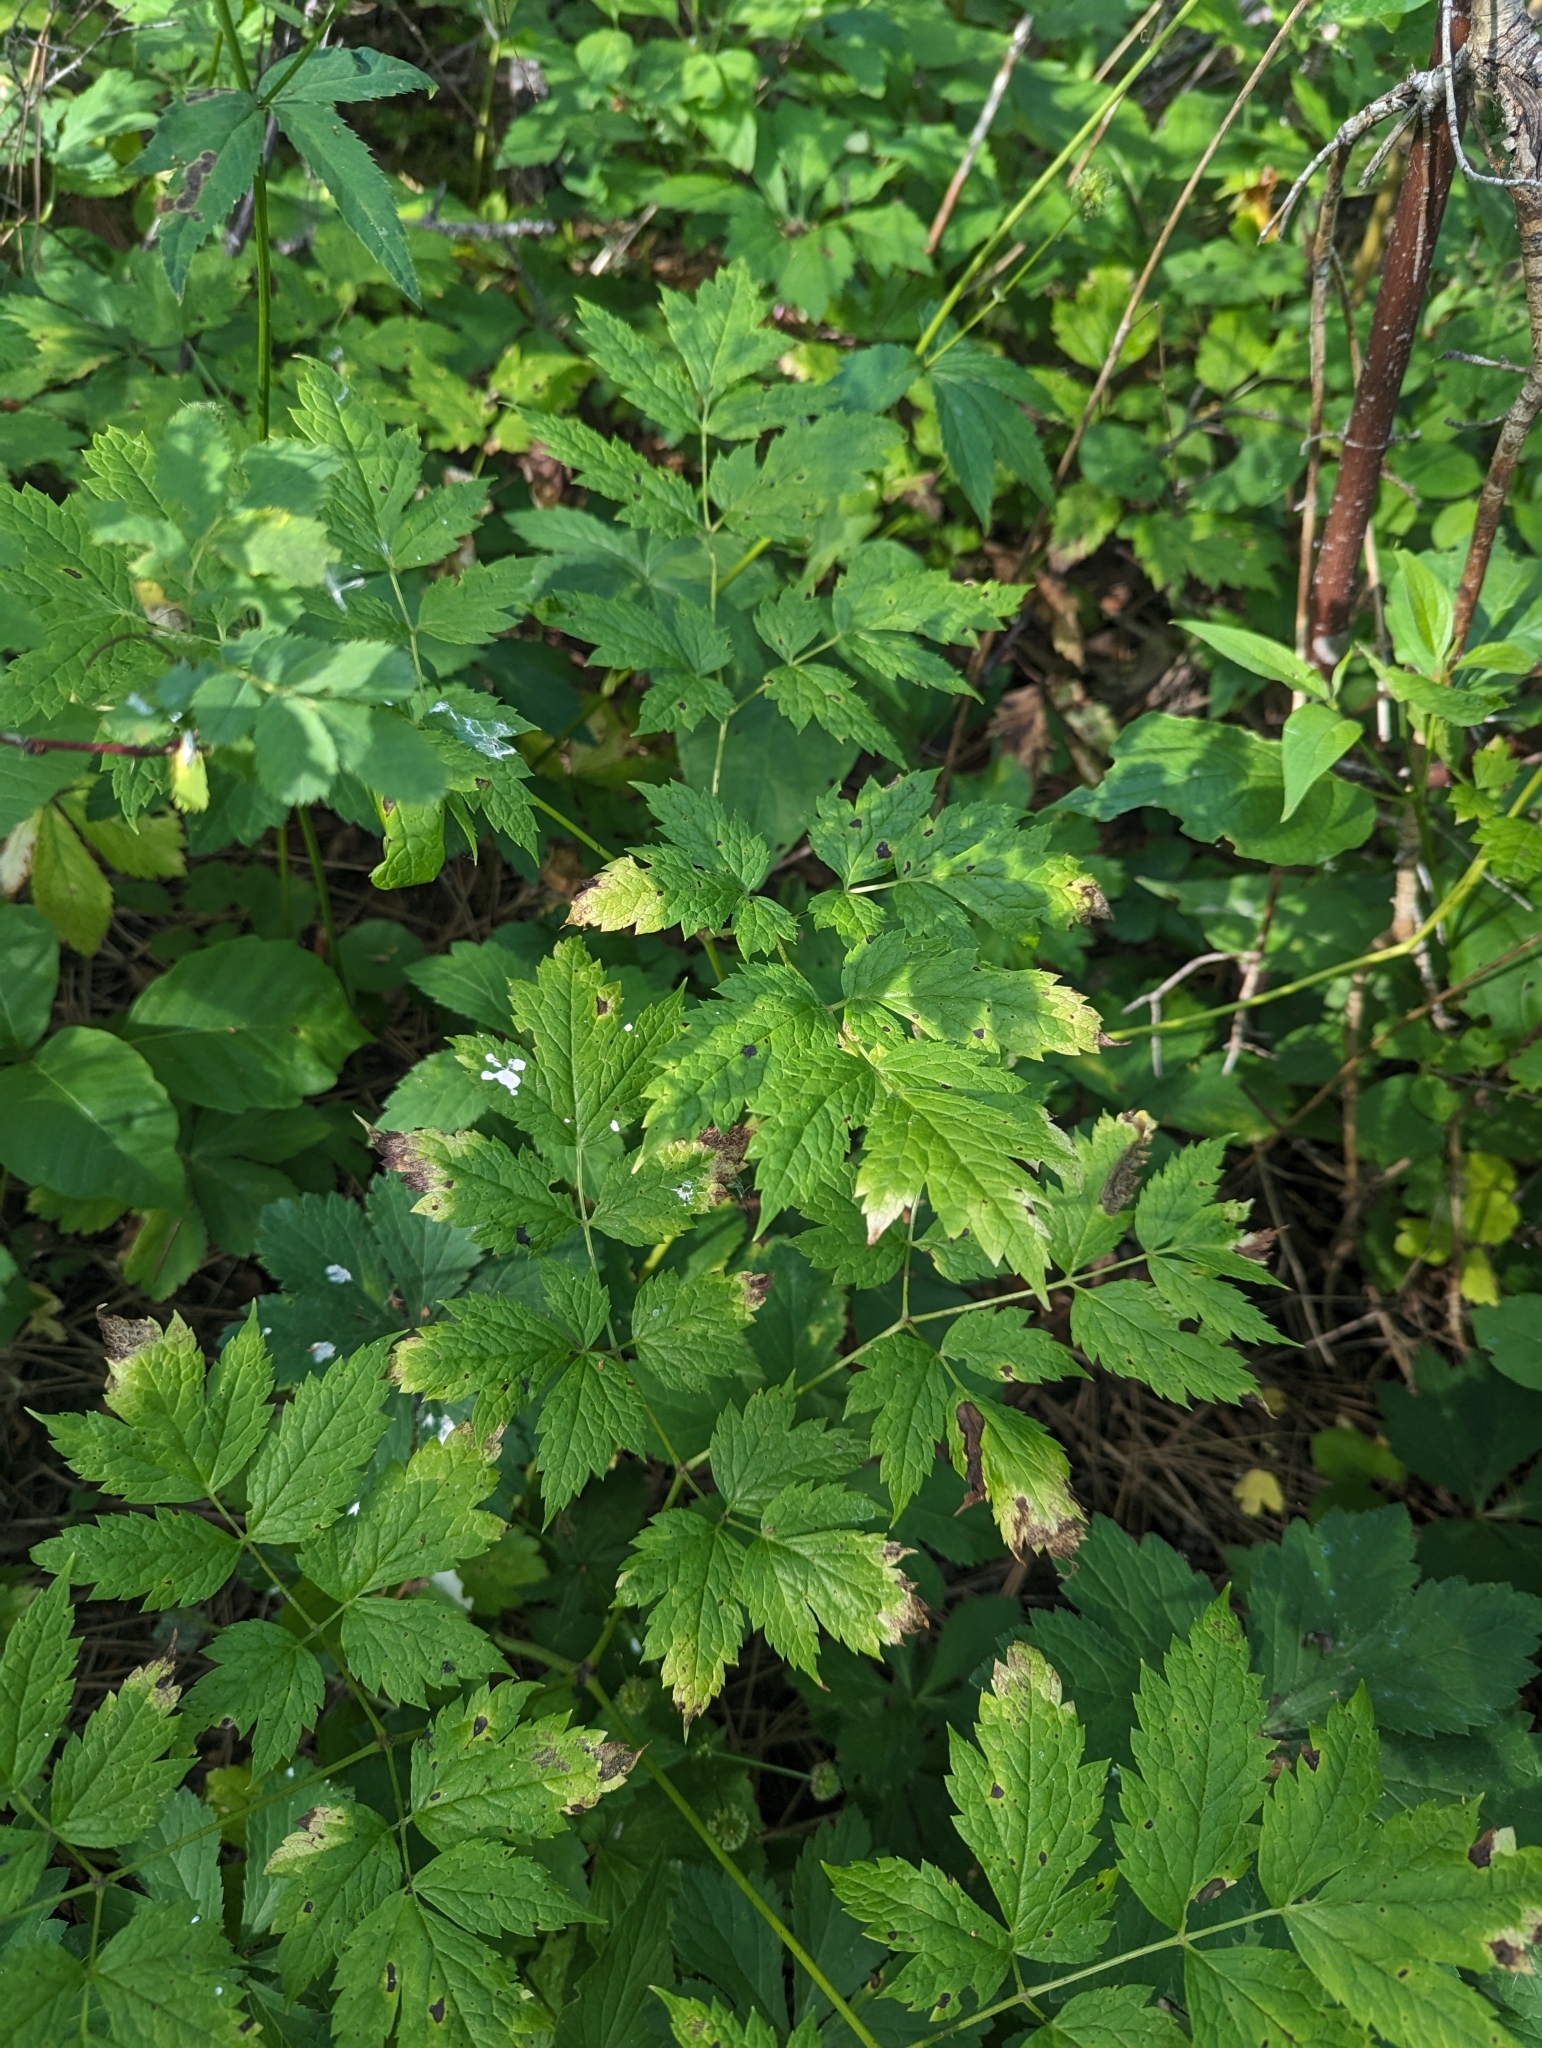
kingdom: Plantae
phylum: Tracheophyta
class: Magnoliopsida
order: Ranunculales
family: Ranunculaceae
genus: Actaea
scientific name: Actaea rubra
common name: Red baneberry
